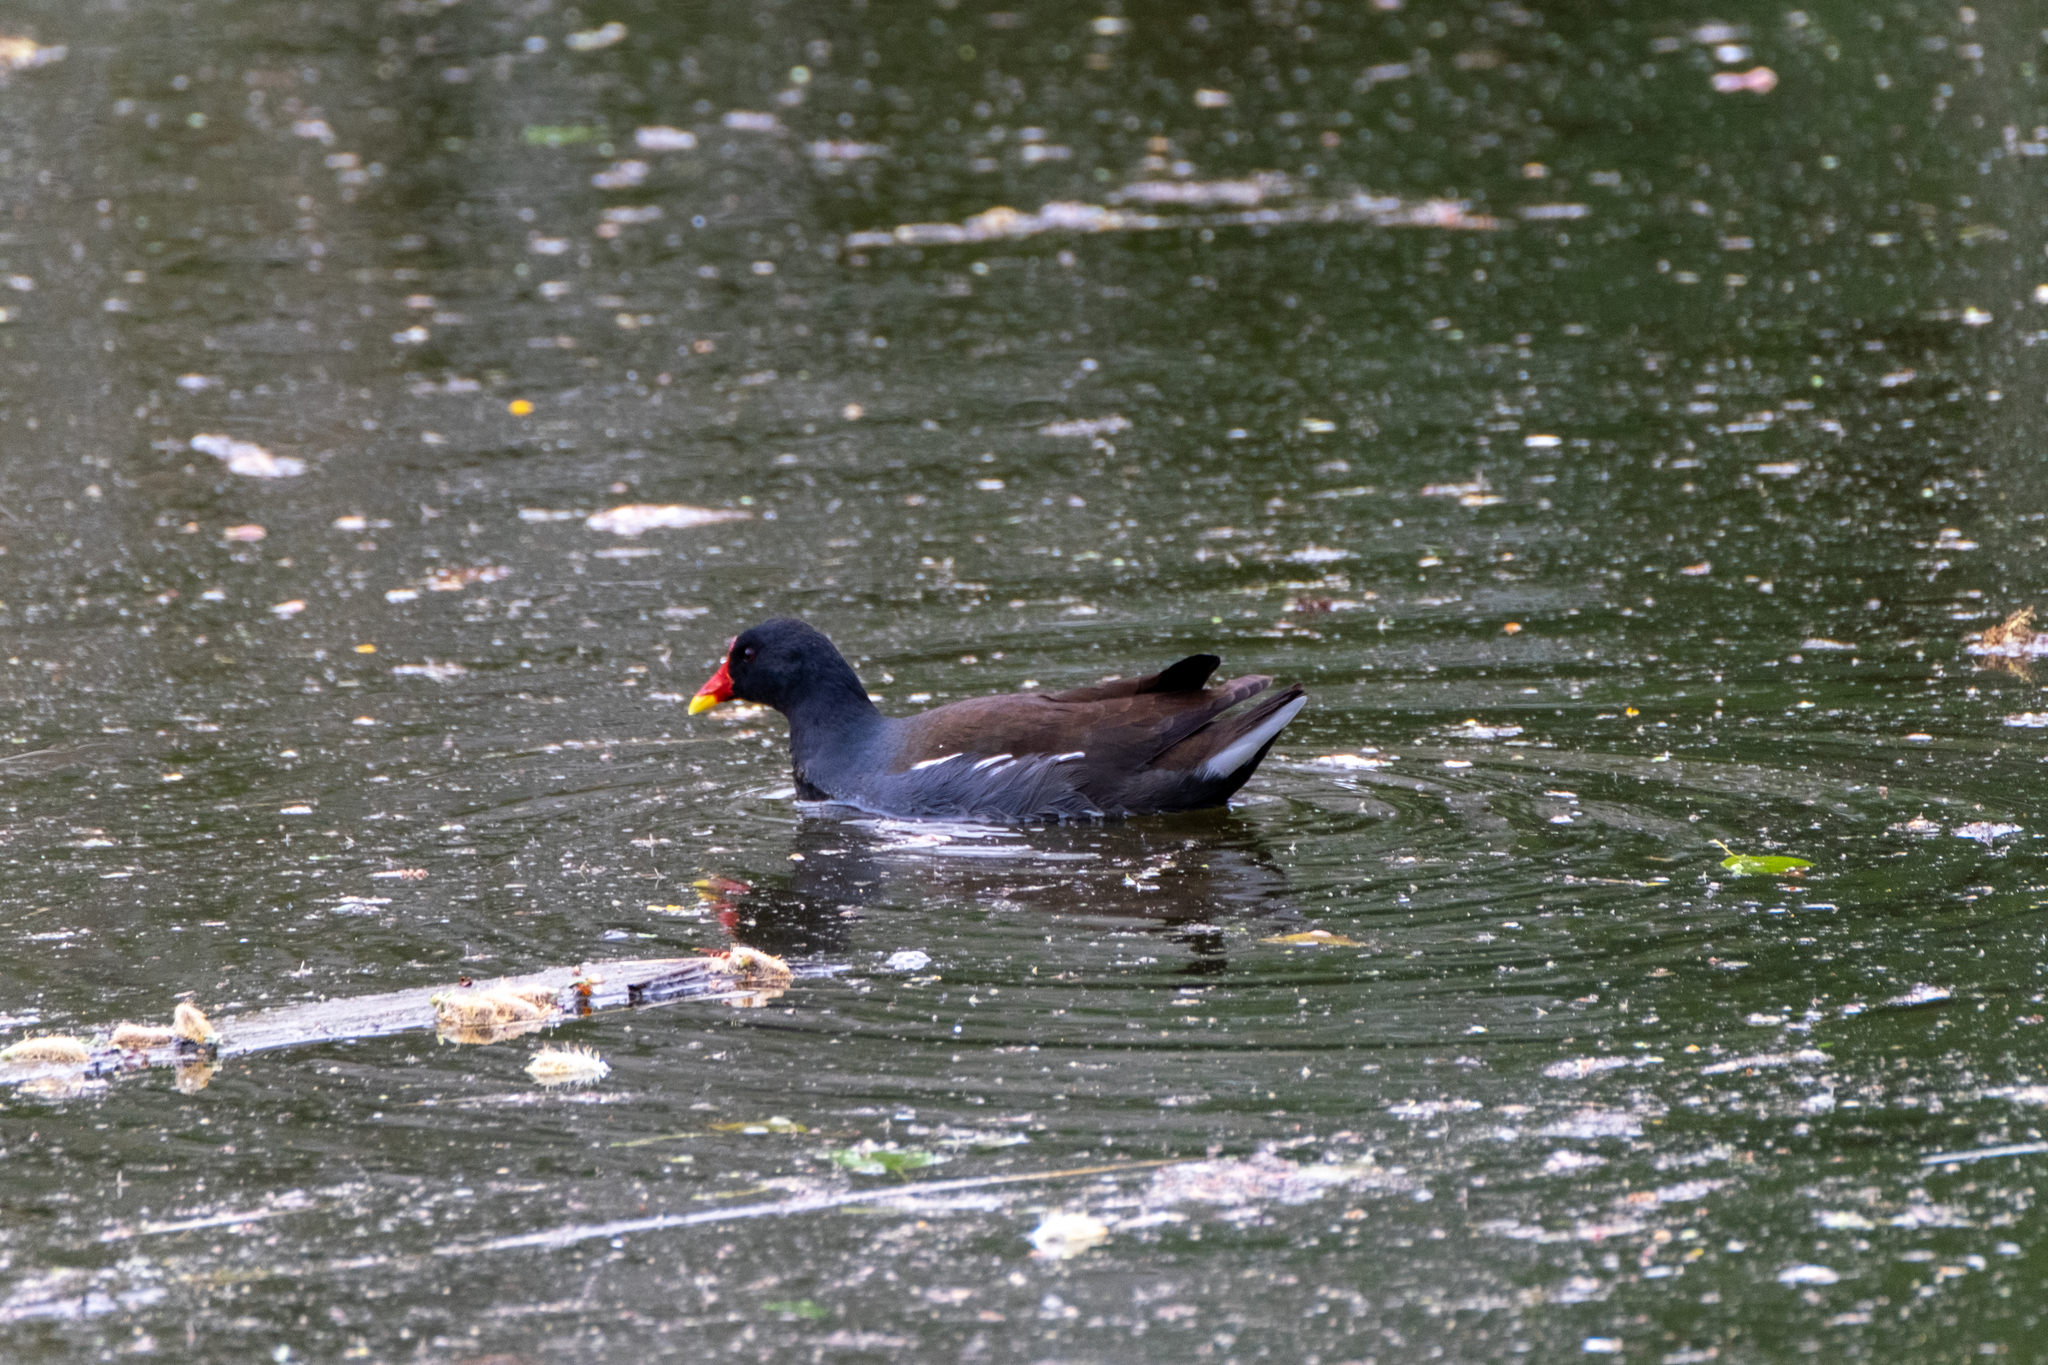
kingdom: Animalia
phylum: Chordata
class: Aves
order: Gruiformes
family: Rallidae
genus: Gallinula
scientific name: Gallinula chloropus
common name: Common moorhen
